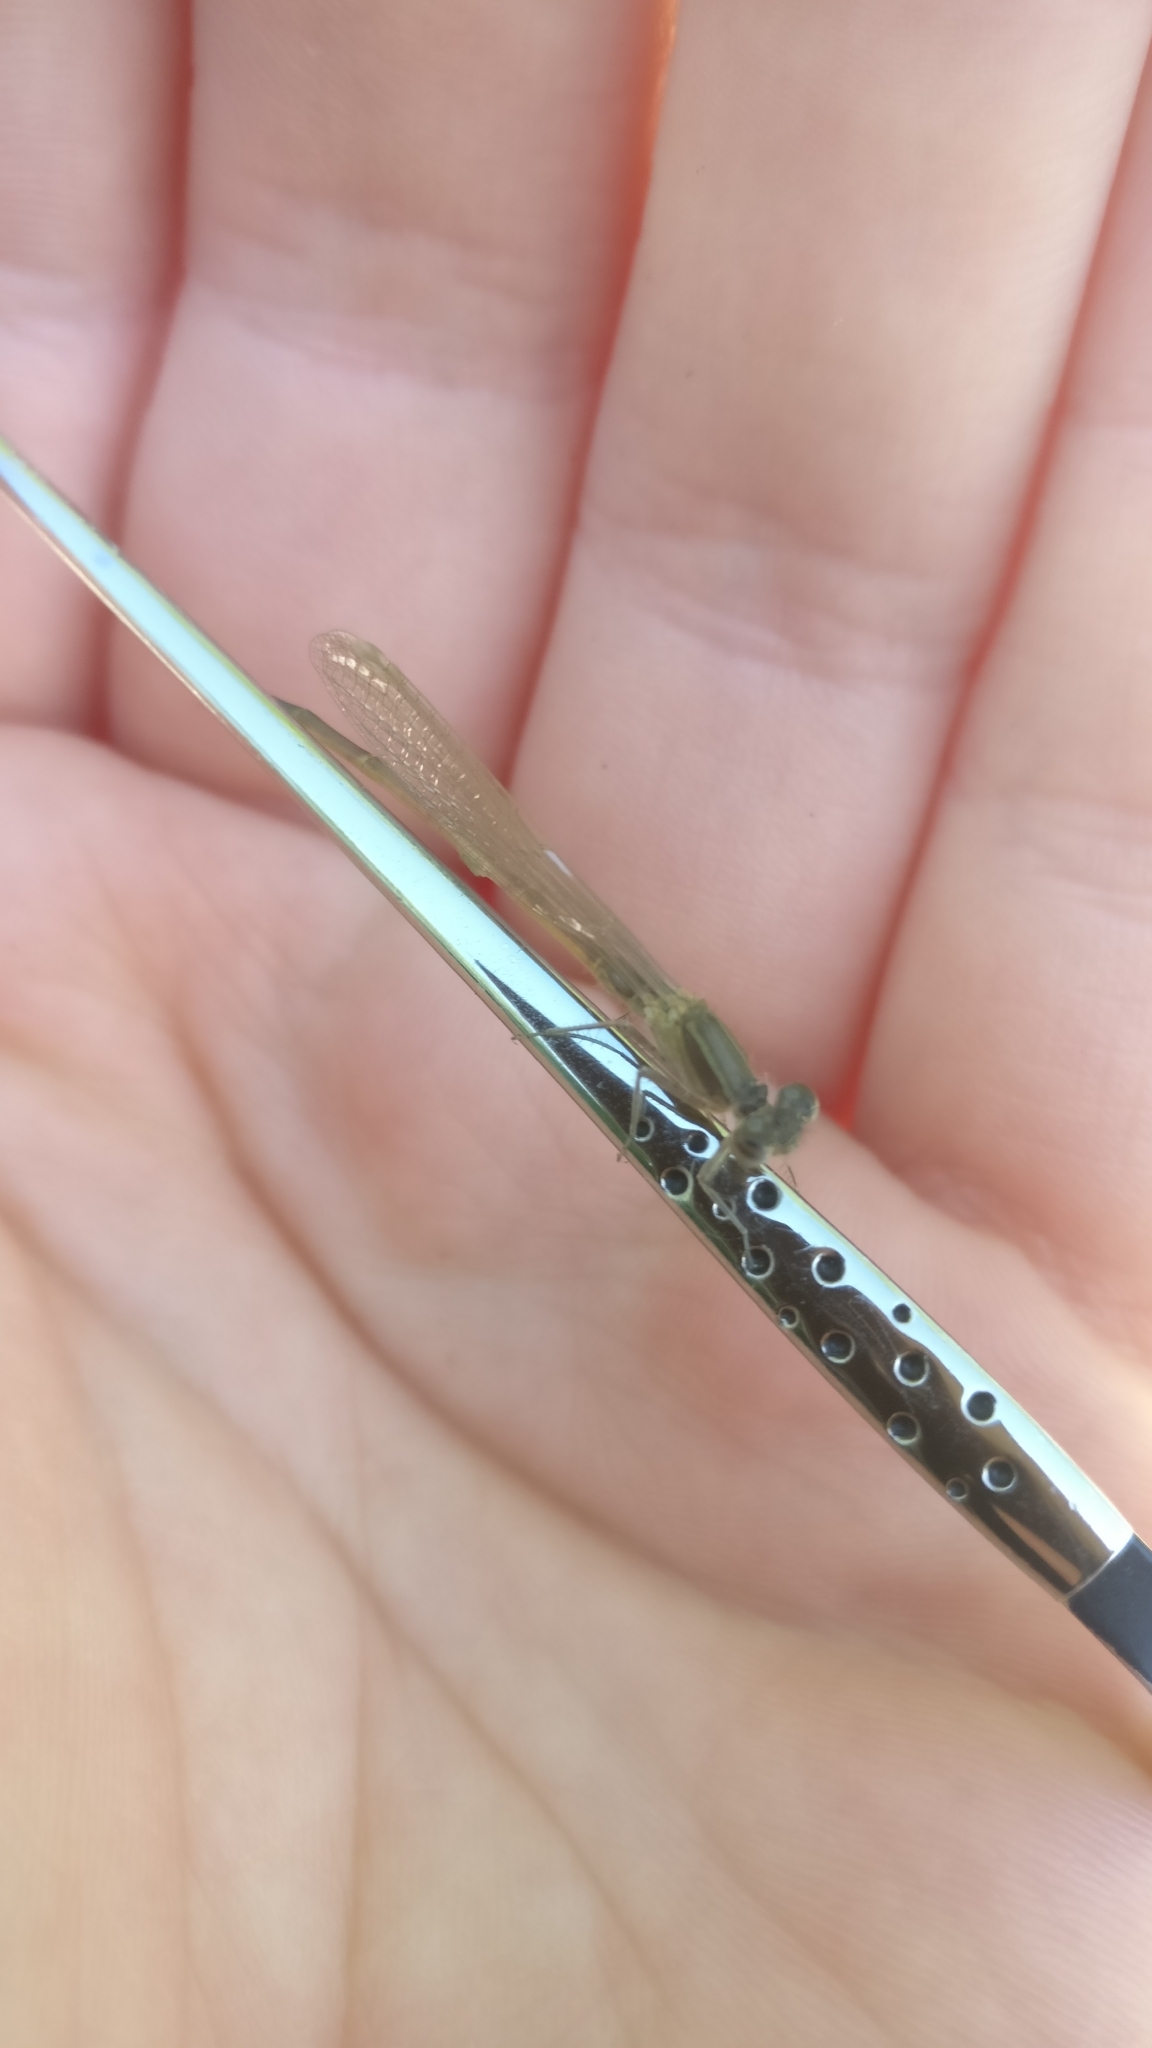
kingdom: Animalia
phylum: Arthropoda
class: Insecta
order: Odonata
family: Coenagrionidae
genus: Ischnura
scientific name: Ischnura elegans
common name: Blue-tailed damselfly
